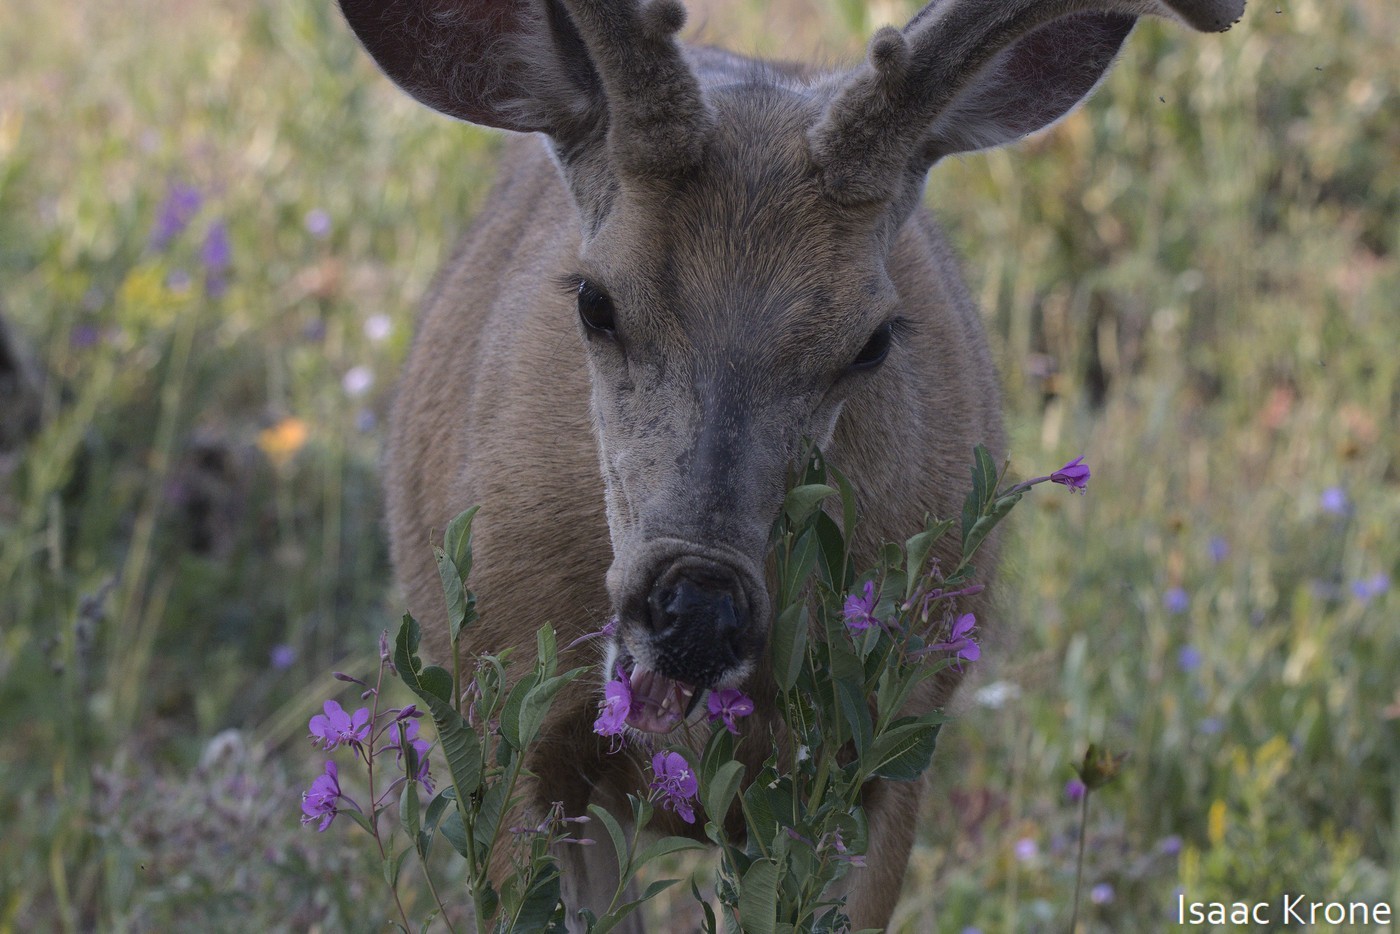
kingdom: Plantae
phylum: Tracheophyta
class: Magnoliopsida
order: Myrtales
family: Onagraceae
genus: Chamaenerion
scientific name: Chamaenerion angustifolium
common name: Fireweed
